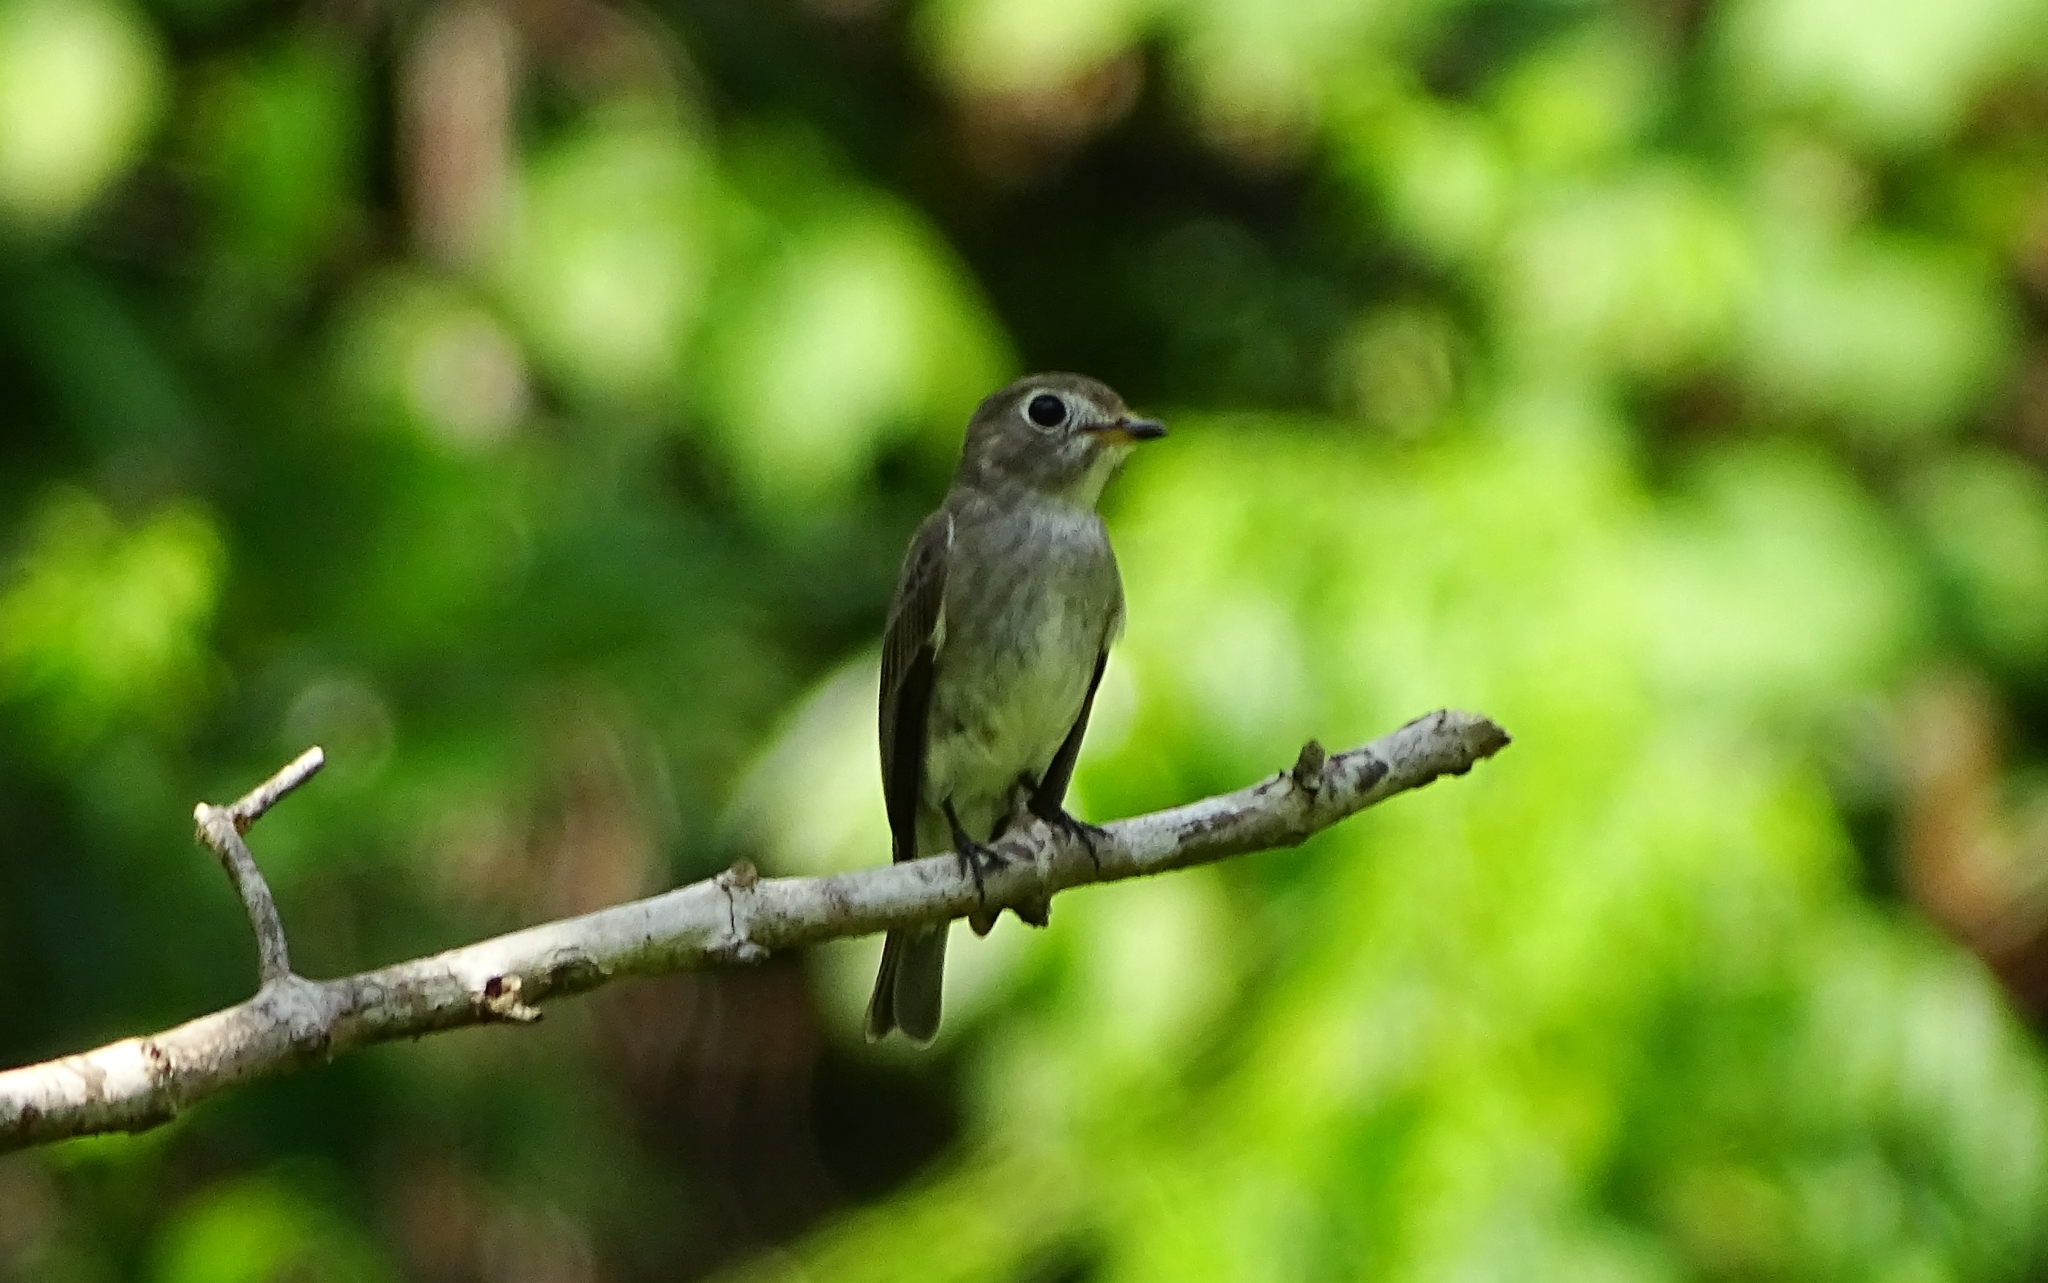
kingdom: Animalia
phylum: Chordata
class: Aves
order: Passeriformes
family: Muscicapidae
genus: Muscicapa
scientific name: Muscicapa latirostris
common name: Asian brown flycatcher
